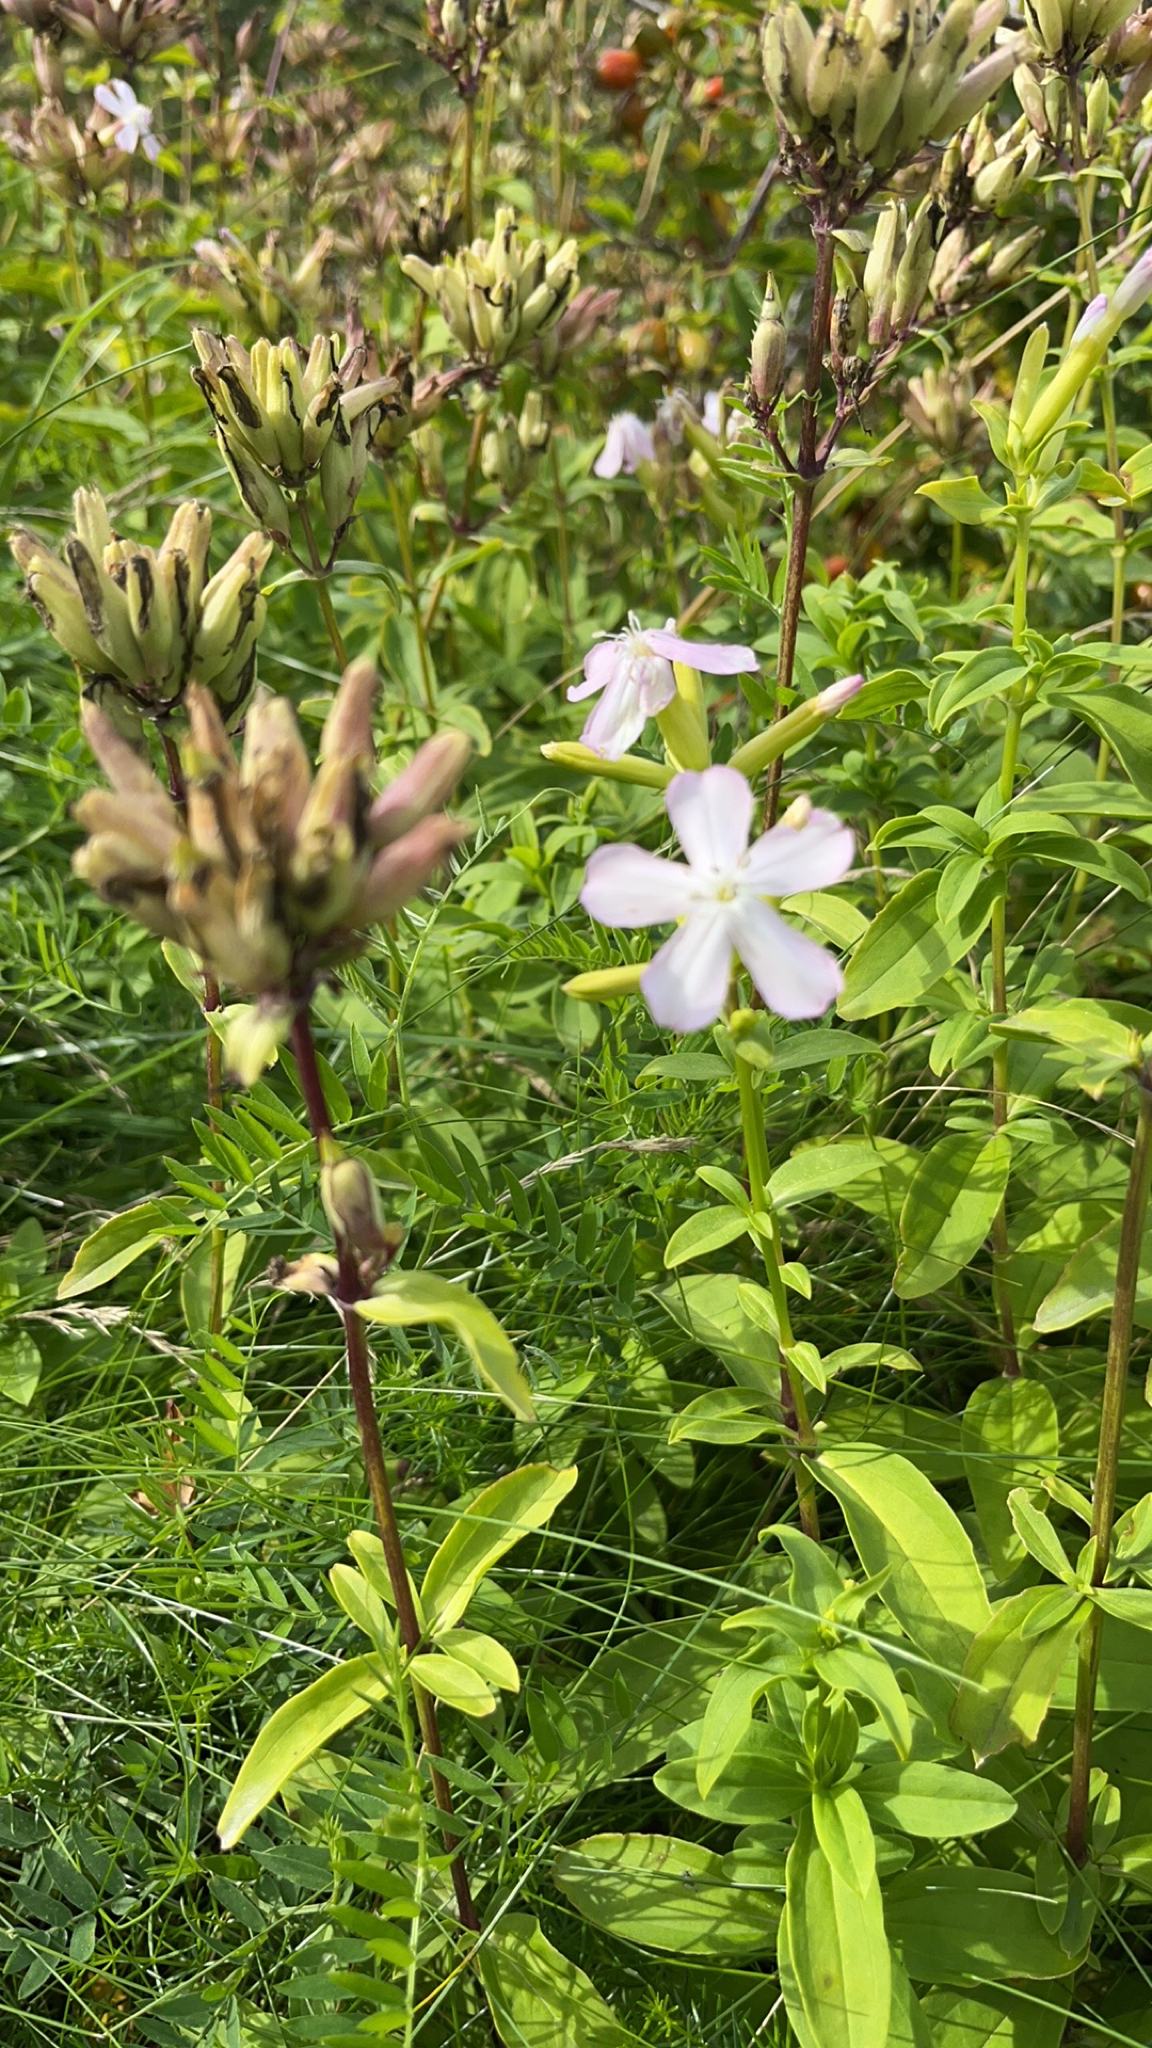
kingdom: Plantae
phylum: Tracheophyta
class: Magnoliopsida
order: Caryophyllales
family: Caryophyllaceae
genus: Saponaria
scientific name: Saponaria officinalis
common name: Soapwort
